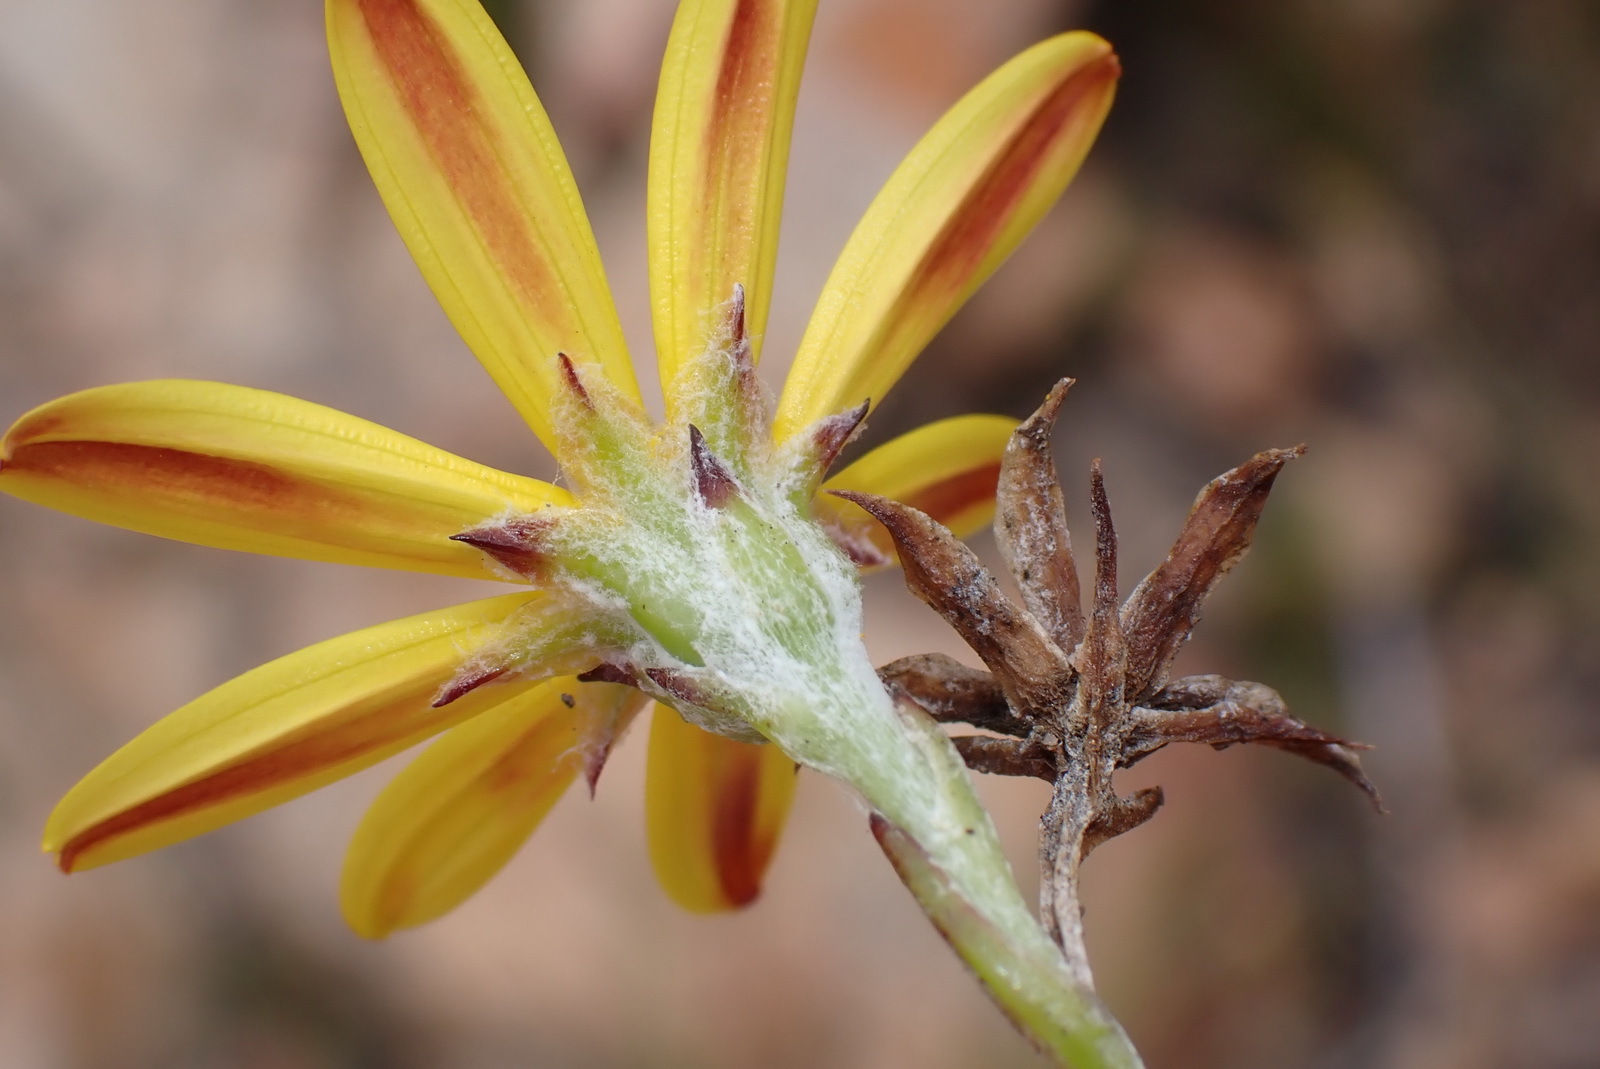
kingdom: Plantae
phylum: Tracheophyta
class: Magnoliopsida
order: Asterales
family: Asteraceae
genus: Osteospermum
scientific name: Osteospermum asperulum
